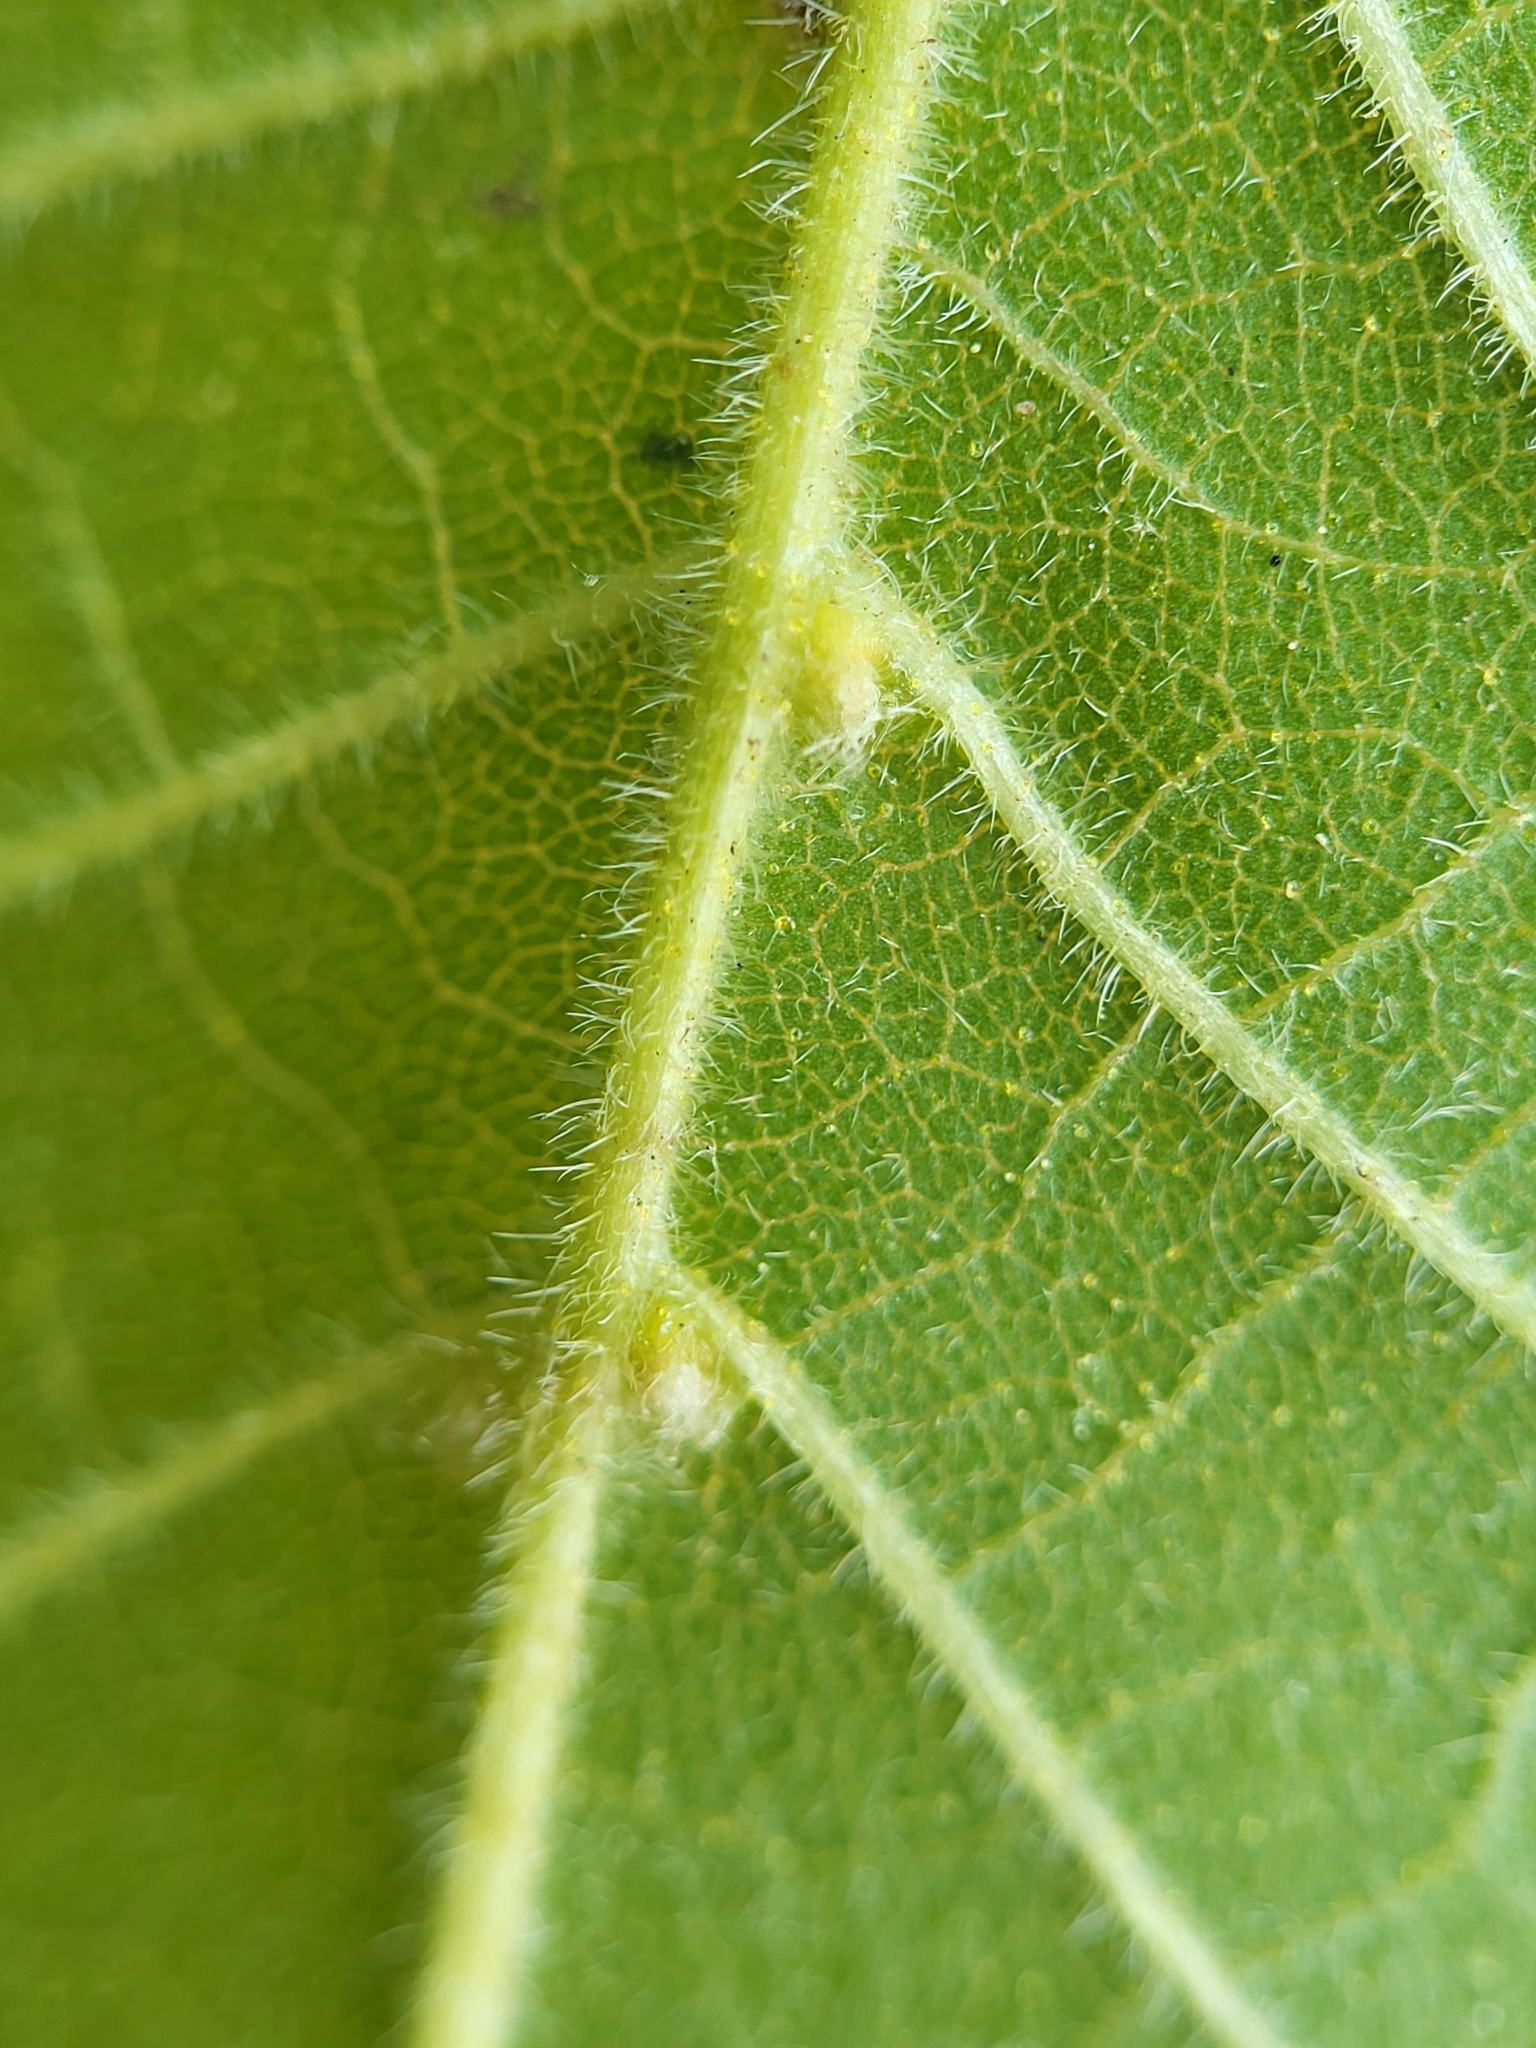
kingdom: Animalia
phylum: Arthropoda
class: Arachnida
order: Trombidiformes
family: Eriophyidae
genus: Aceria
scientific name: Aceria
